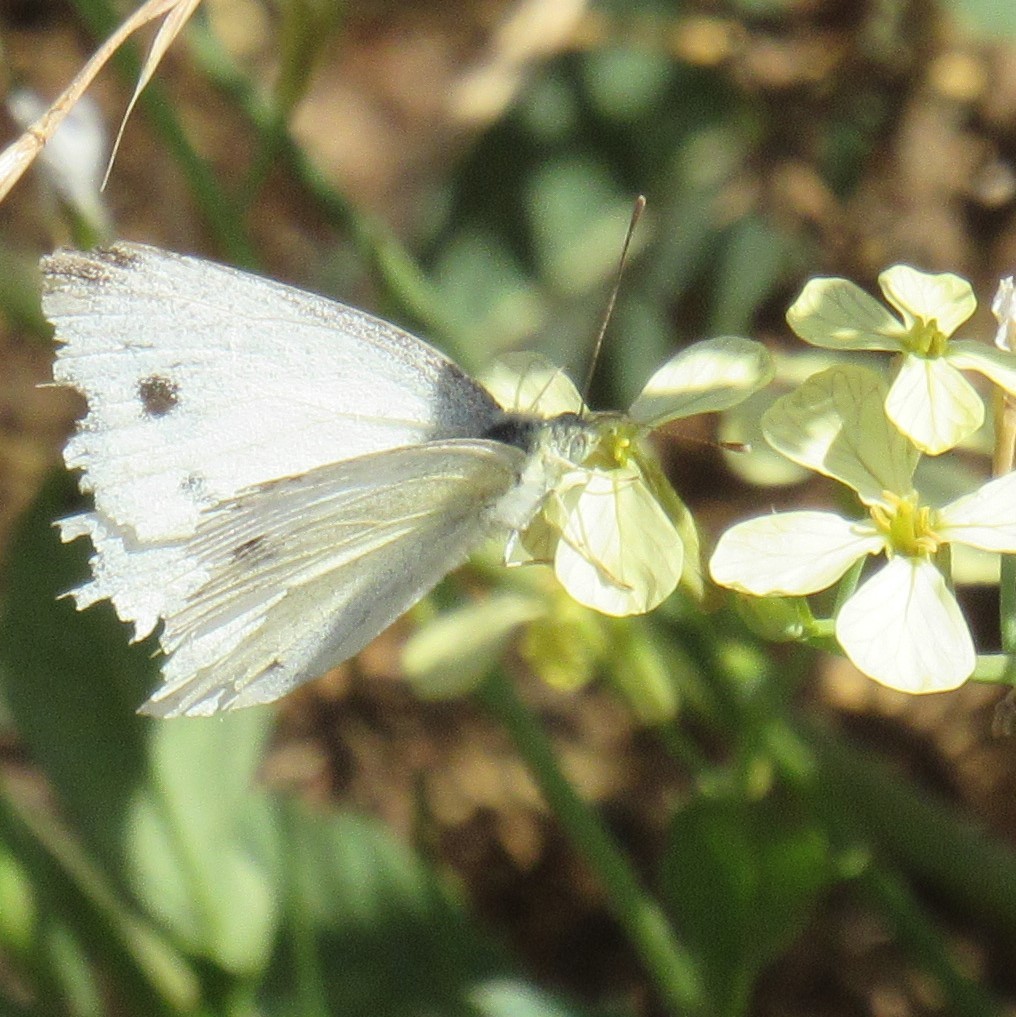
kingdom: Animalia
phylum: Arthropoda
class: Insecta
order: Lepidoptera
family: Pieridae
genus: Pieris
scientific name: Pieris rapae
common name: Small white
